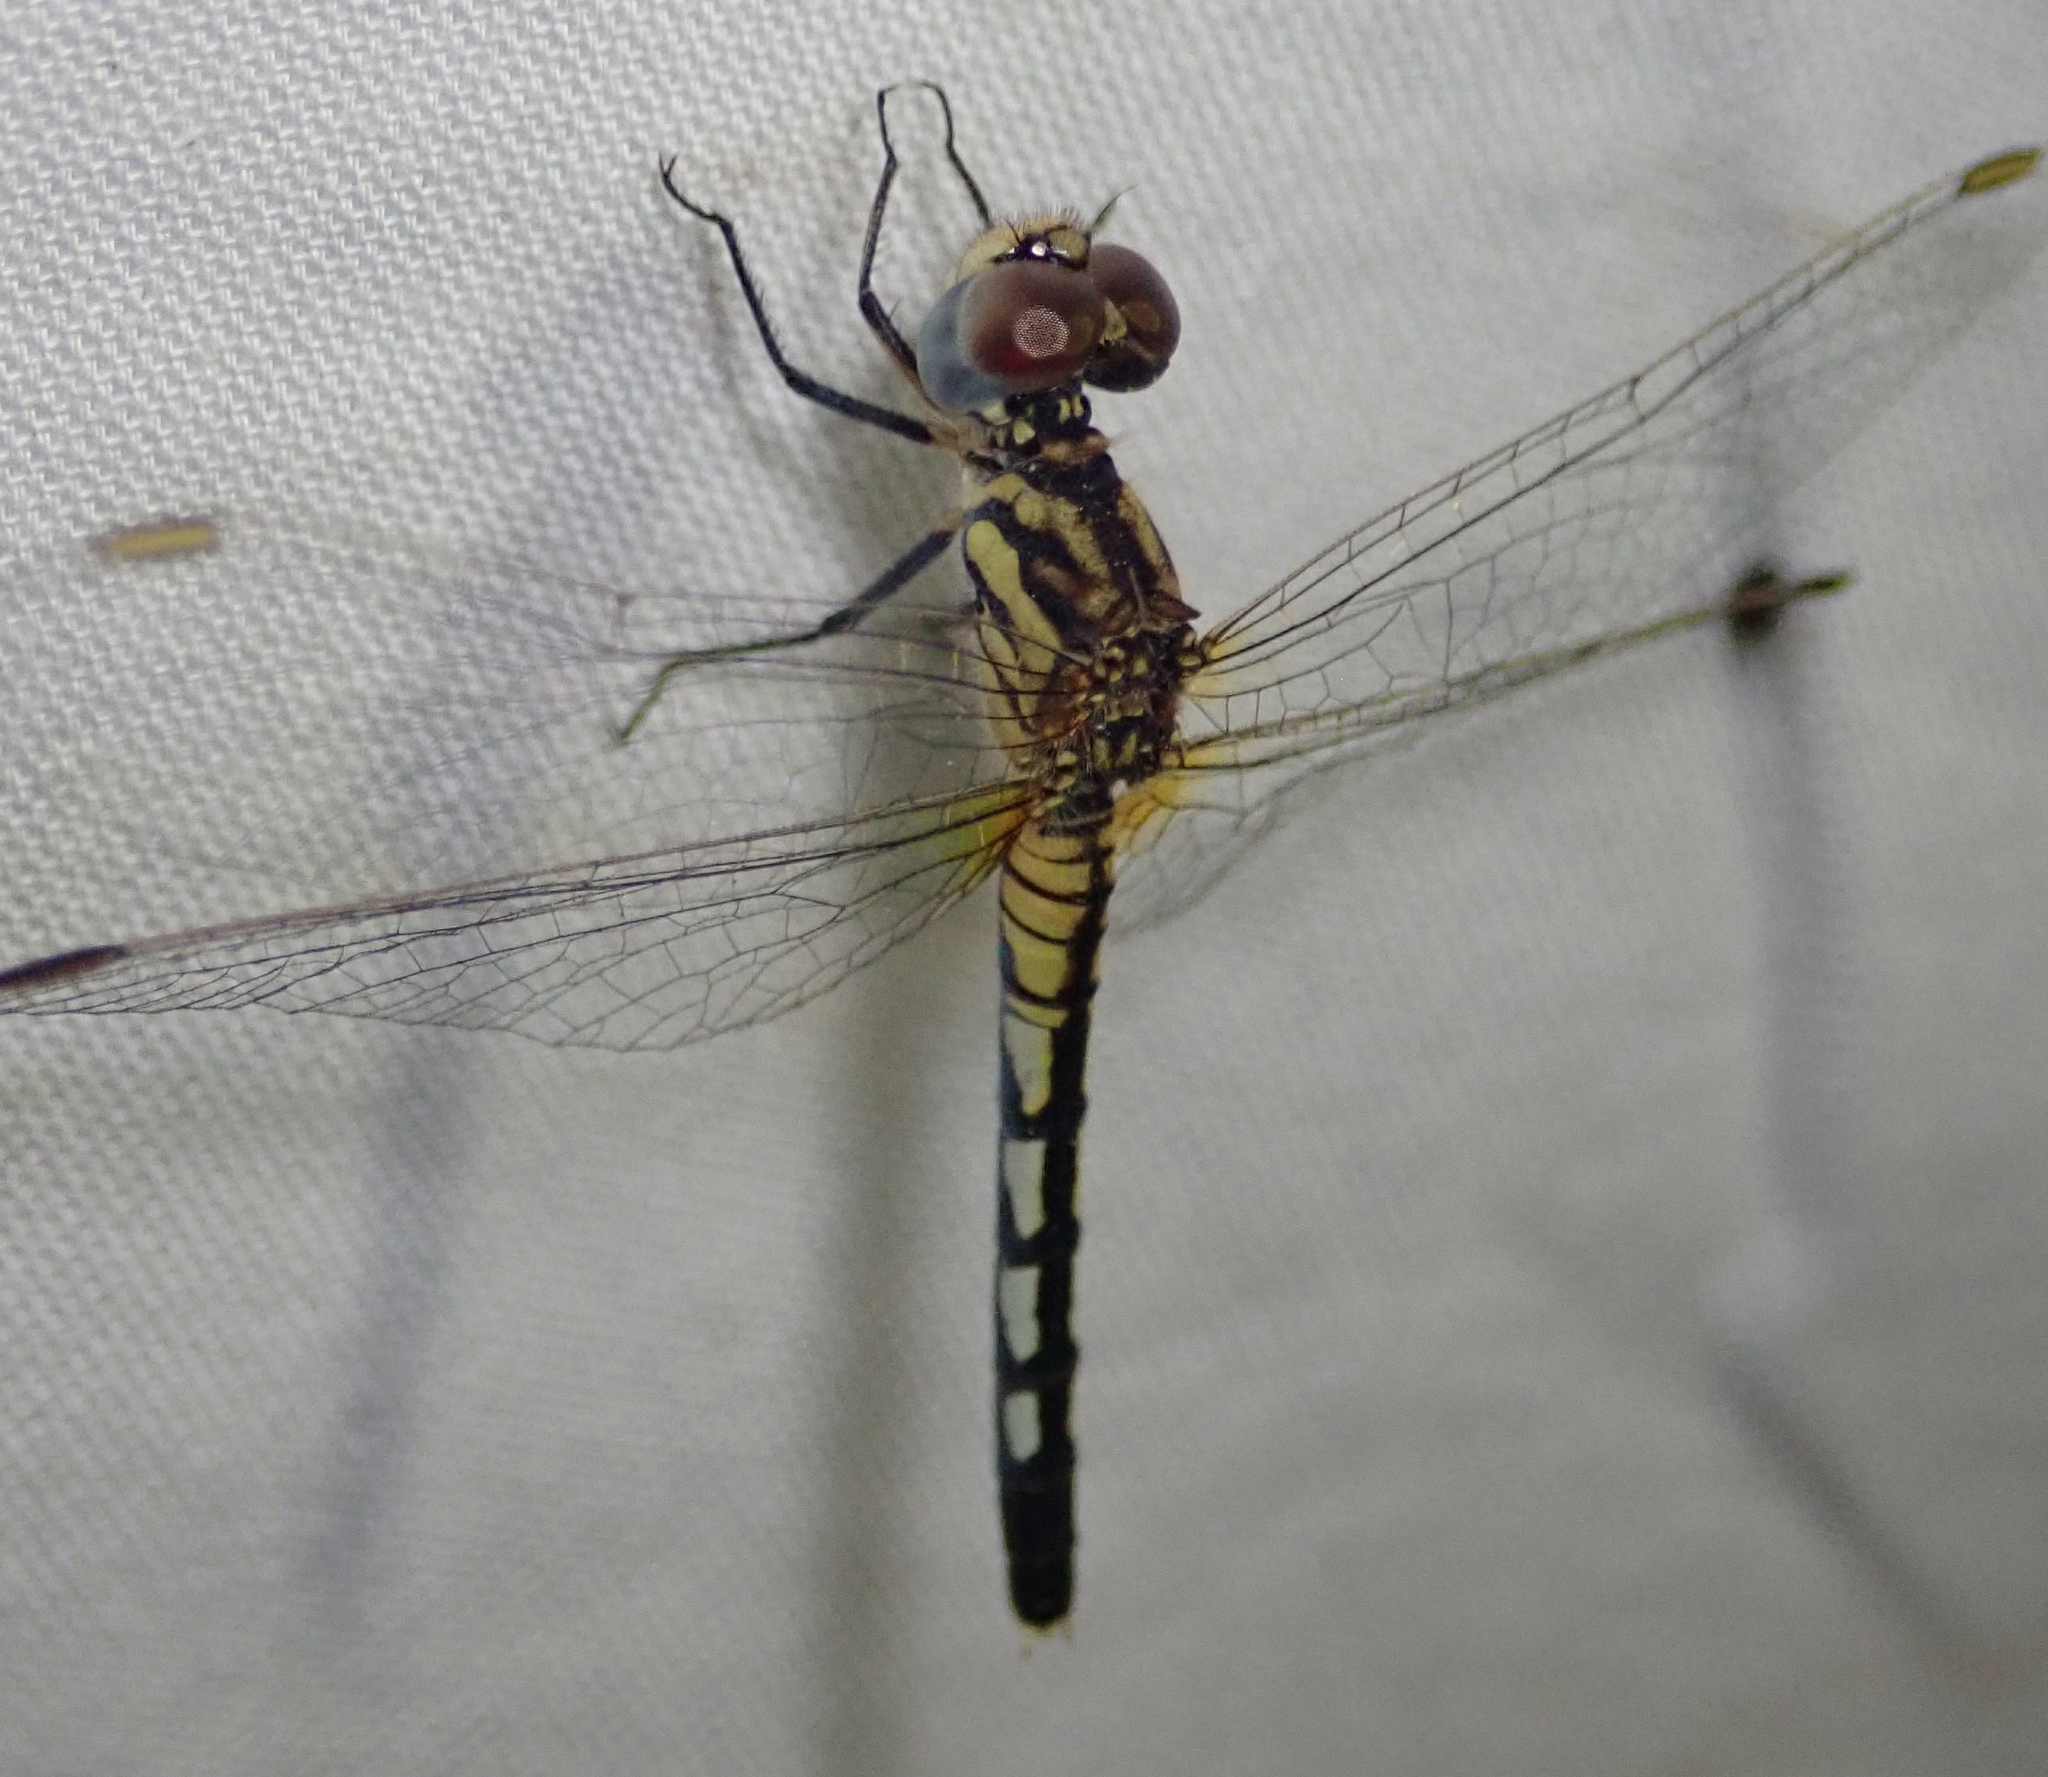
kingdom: Animalia
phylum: Arthropoda
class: Insecta
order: Odonata
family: Libellulidae
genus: Diplacodes
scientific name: Diplacodes lefebvrii
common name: Black percher
